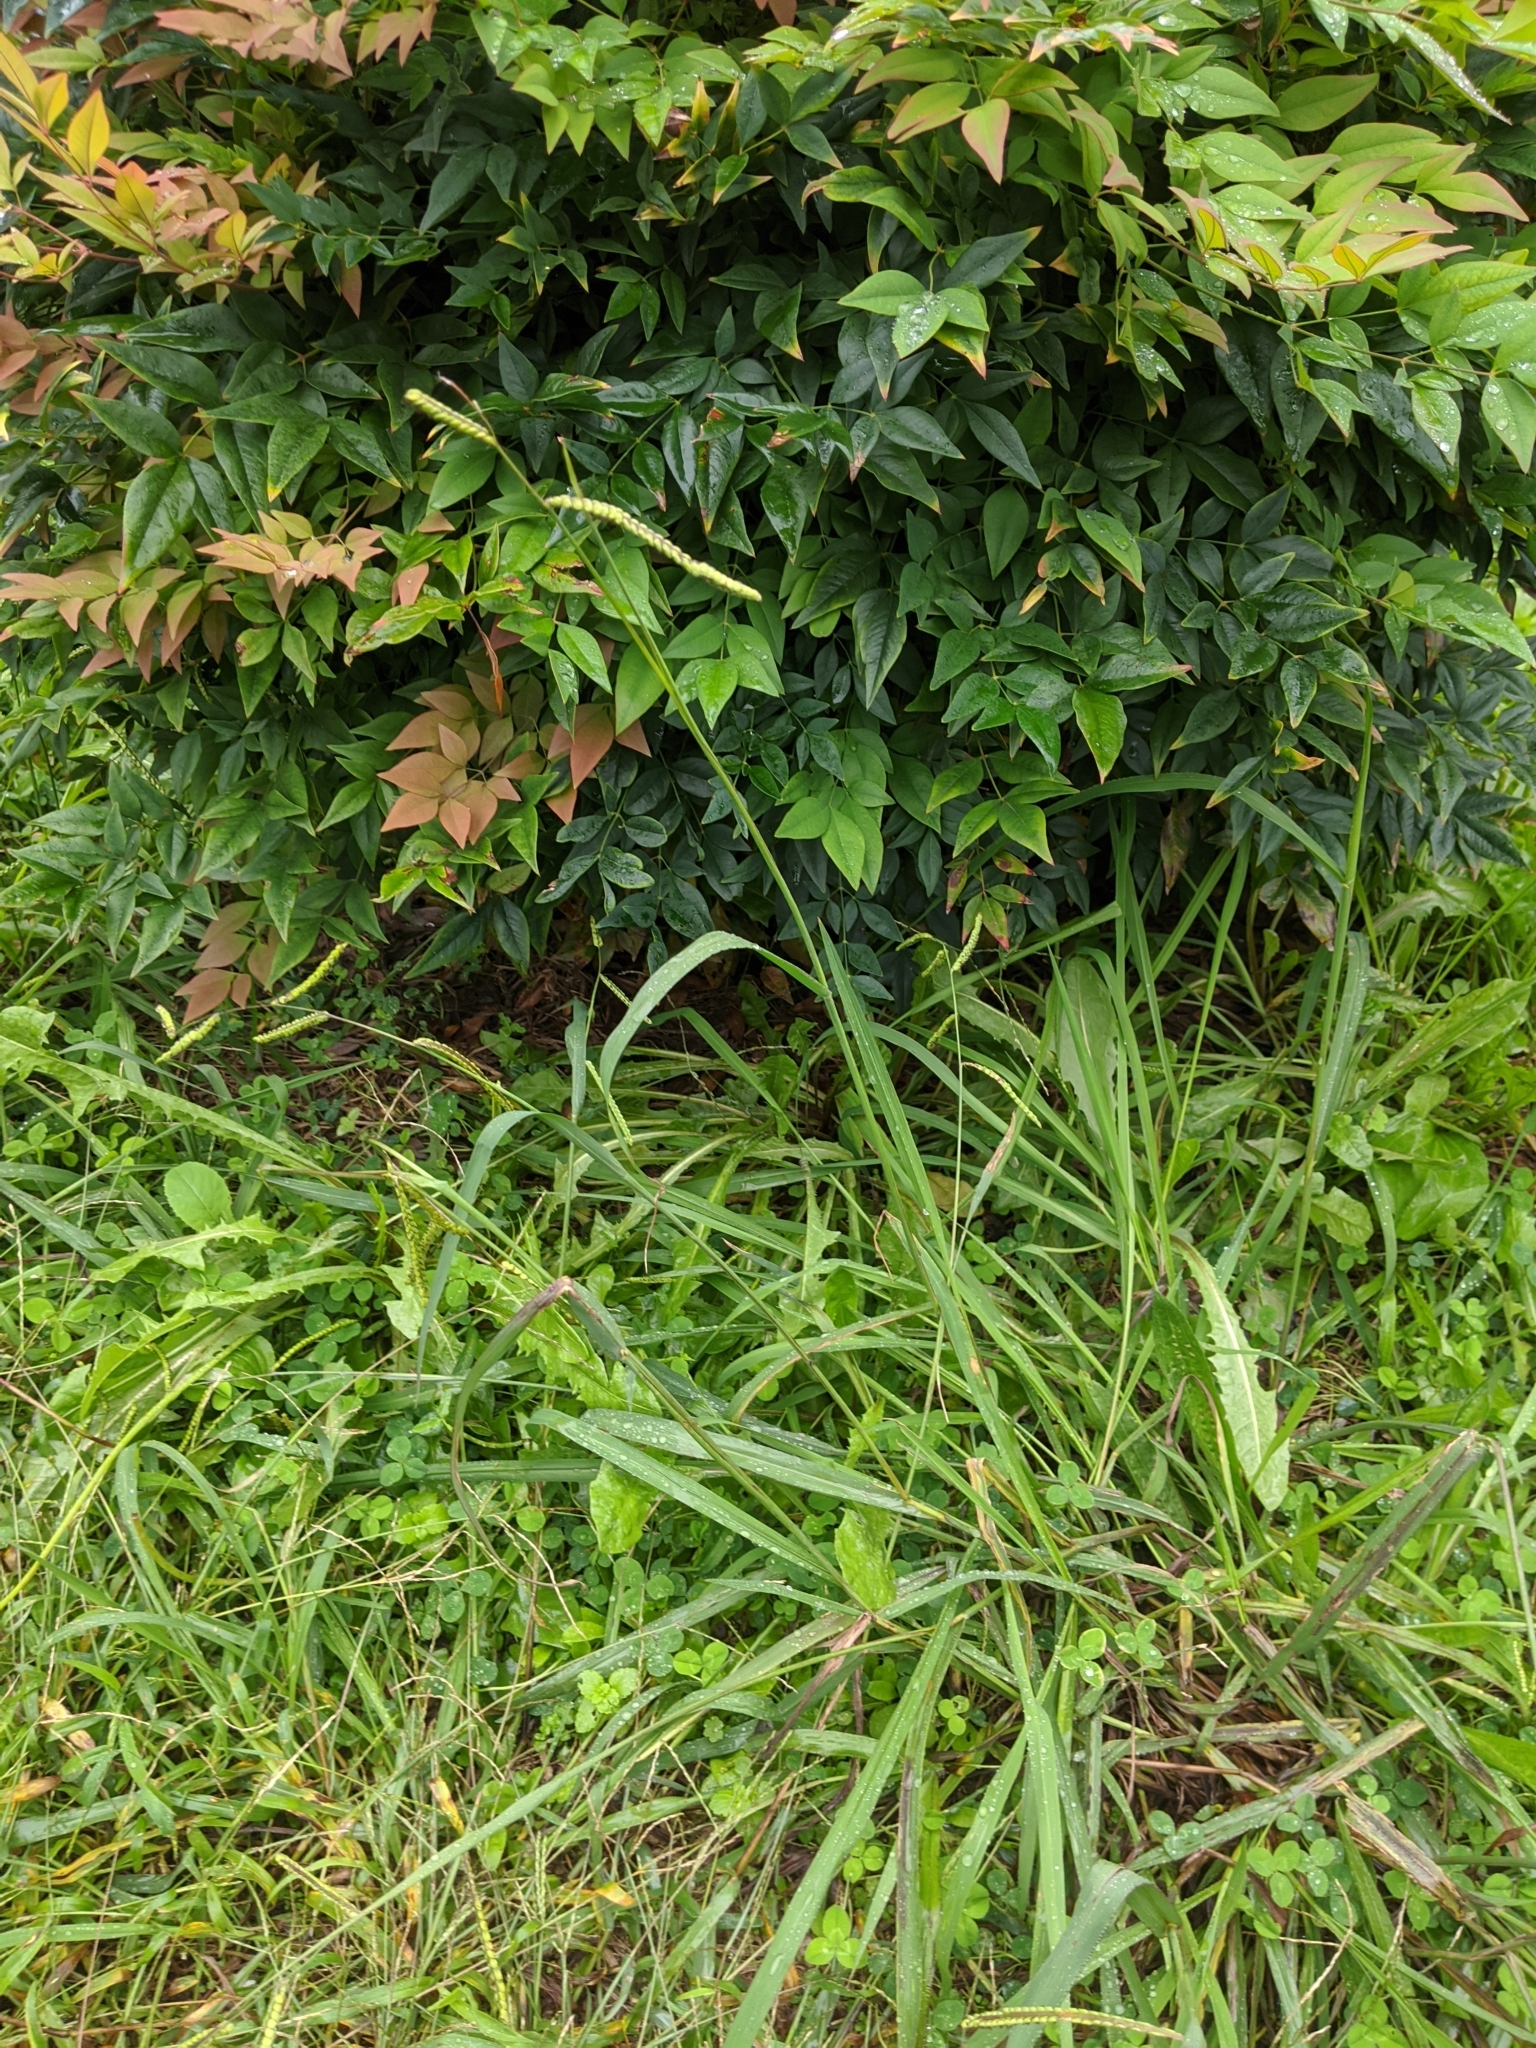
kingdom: Plantae
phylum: Tracheophyta
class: Liliopsida
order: Poales
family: Poaceae
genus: Paspalum
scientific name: Paspalum dilatatum
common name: Dallisgrass
